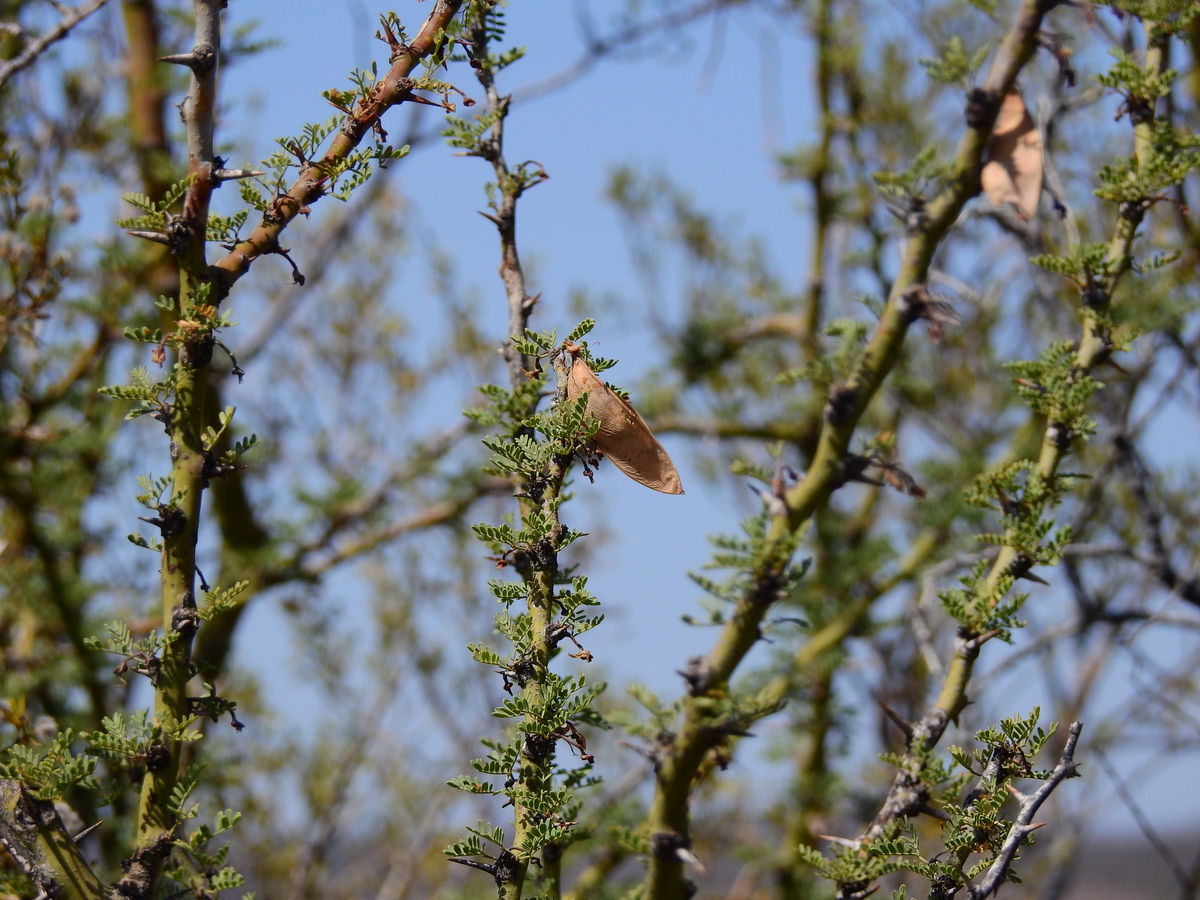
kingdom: Plantae
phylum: Tracheophyta
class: Magnoliopsida
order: Fabales
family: Fabaceae
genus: Parkinsonia
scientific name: Parkinsonia praecox
